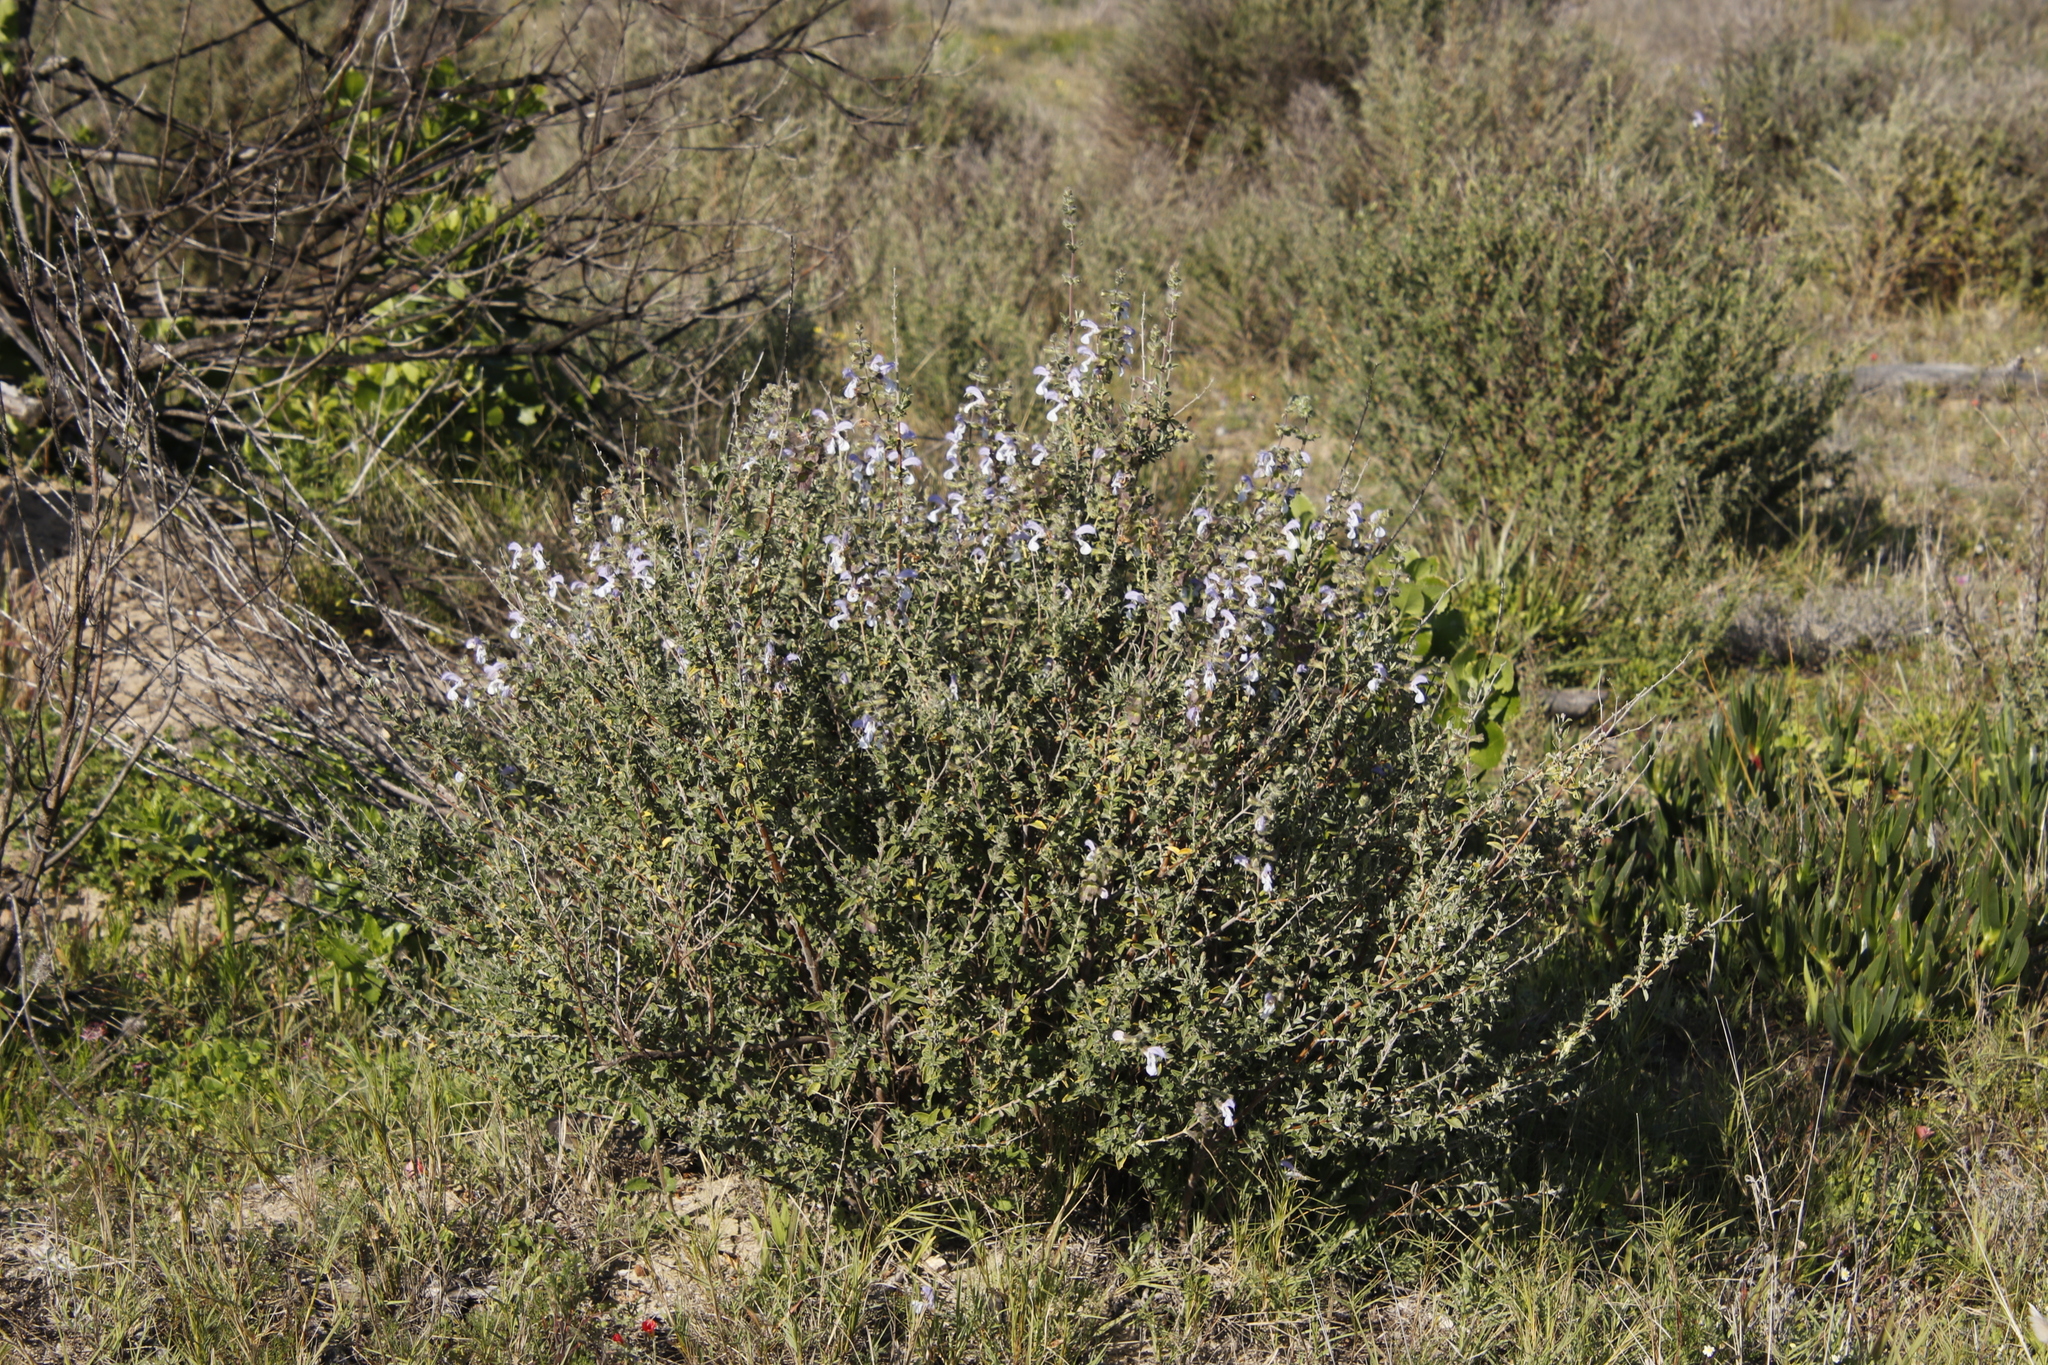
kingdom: Plantae
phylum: Tracheophyta
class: Magnoliopsida
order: Lamiales
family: Lamiaceae
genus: Salvia
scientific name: Salvia africana
